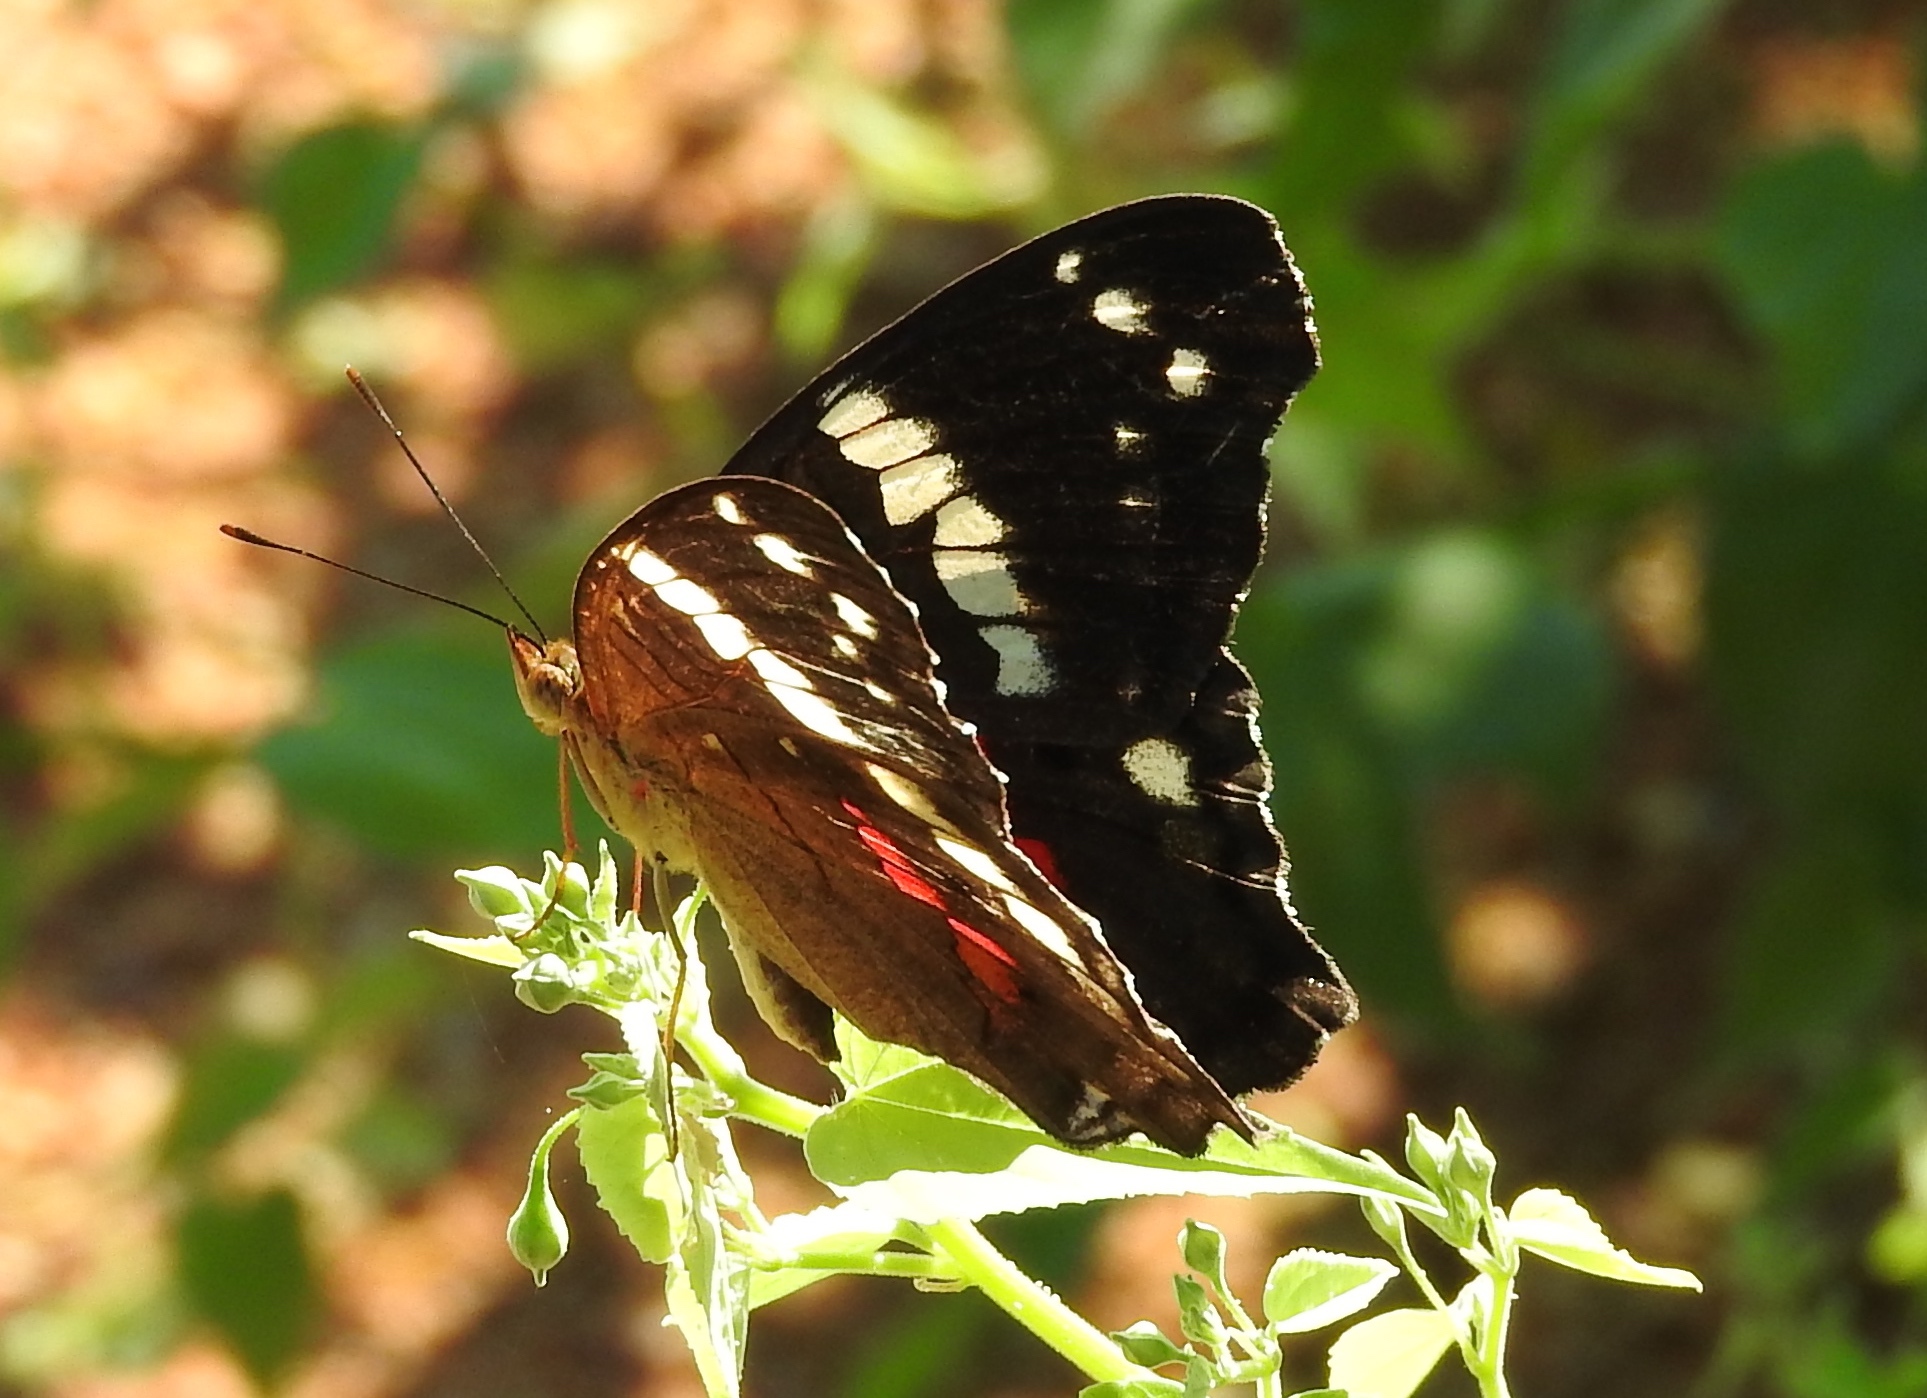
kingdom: Animalia
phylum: Arthropoda
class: Insecta
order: Lepidoptera
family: Nymphalidae
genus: Anartia
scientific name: Anartia fatima
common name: Banded peacock
